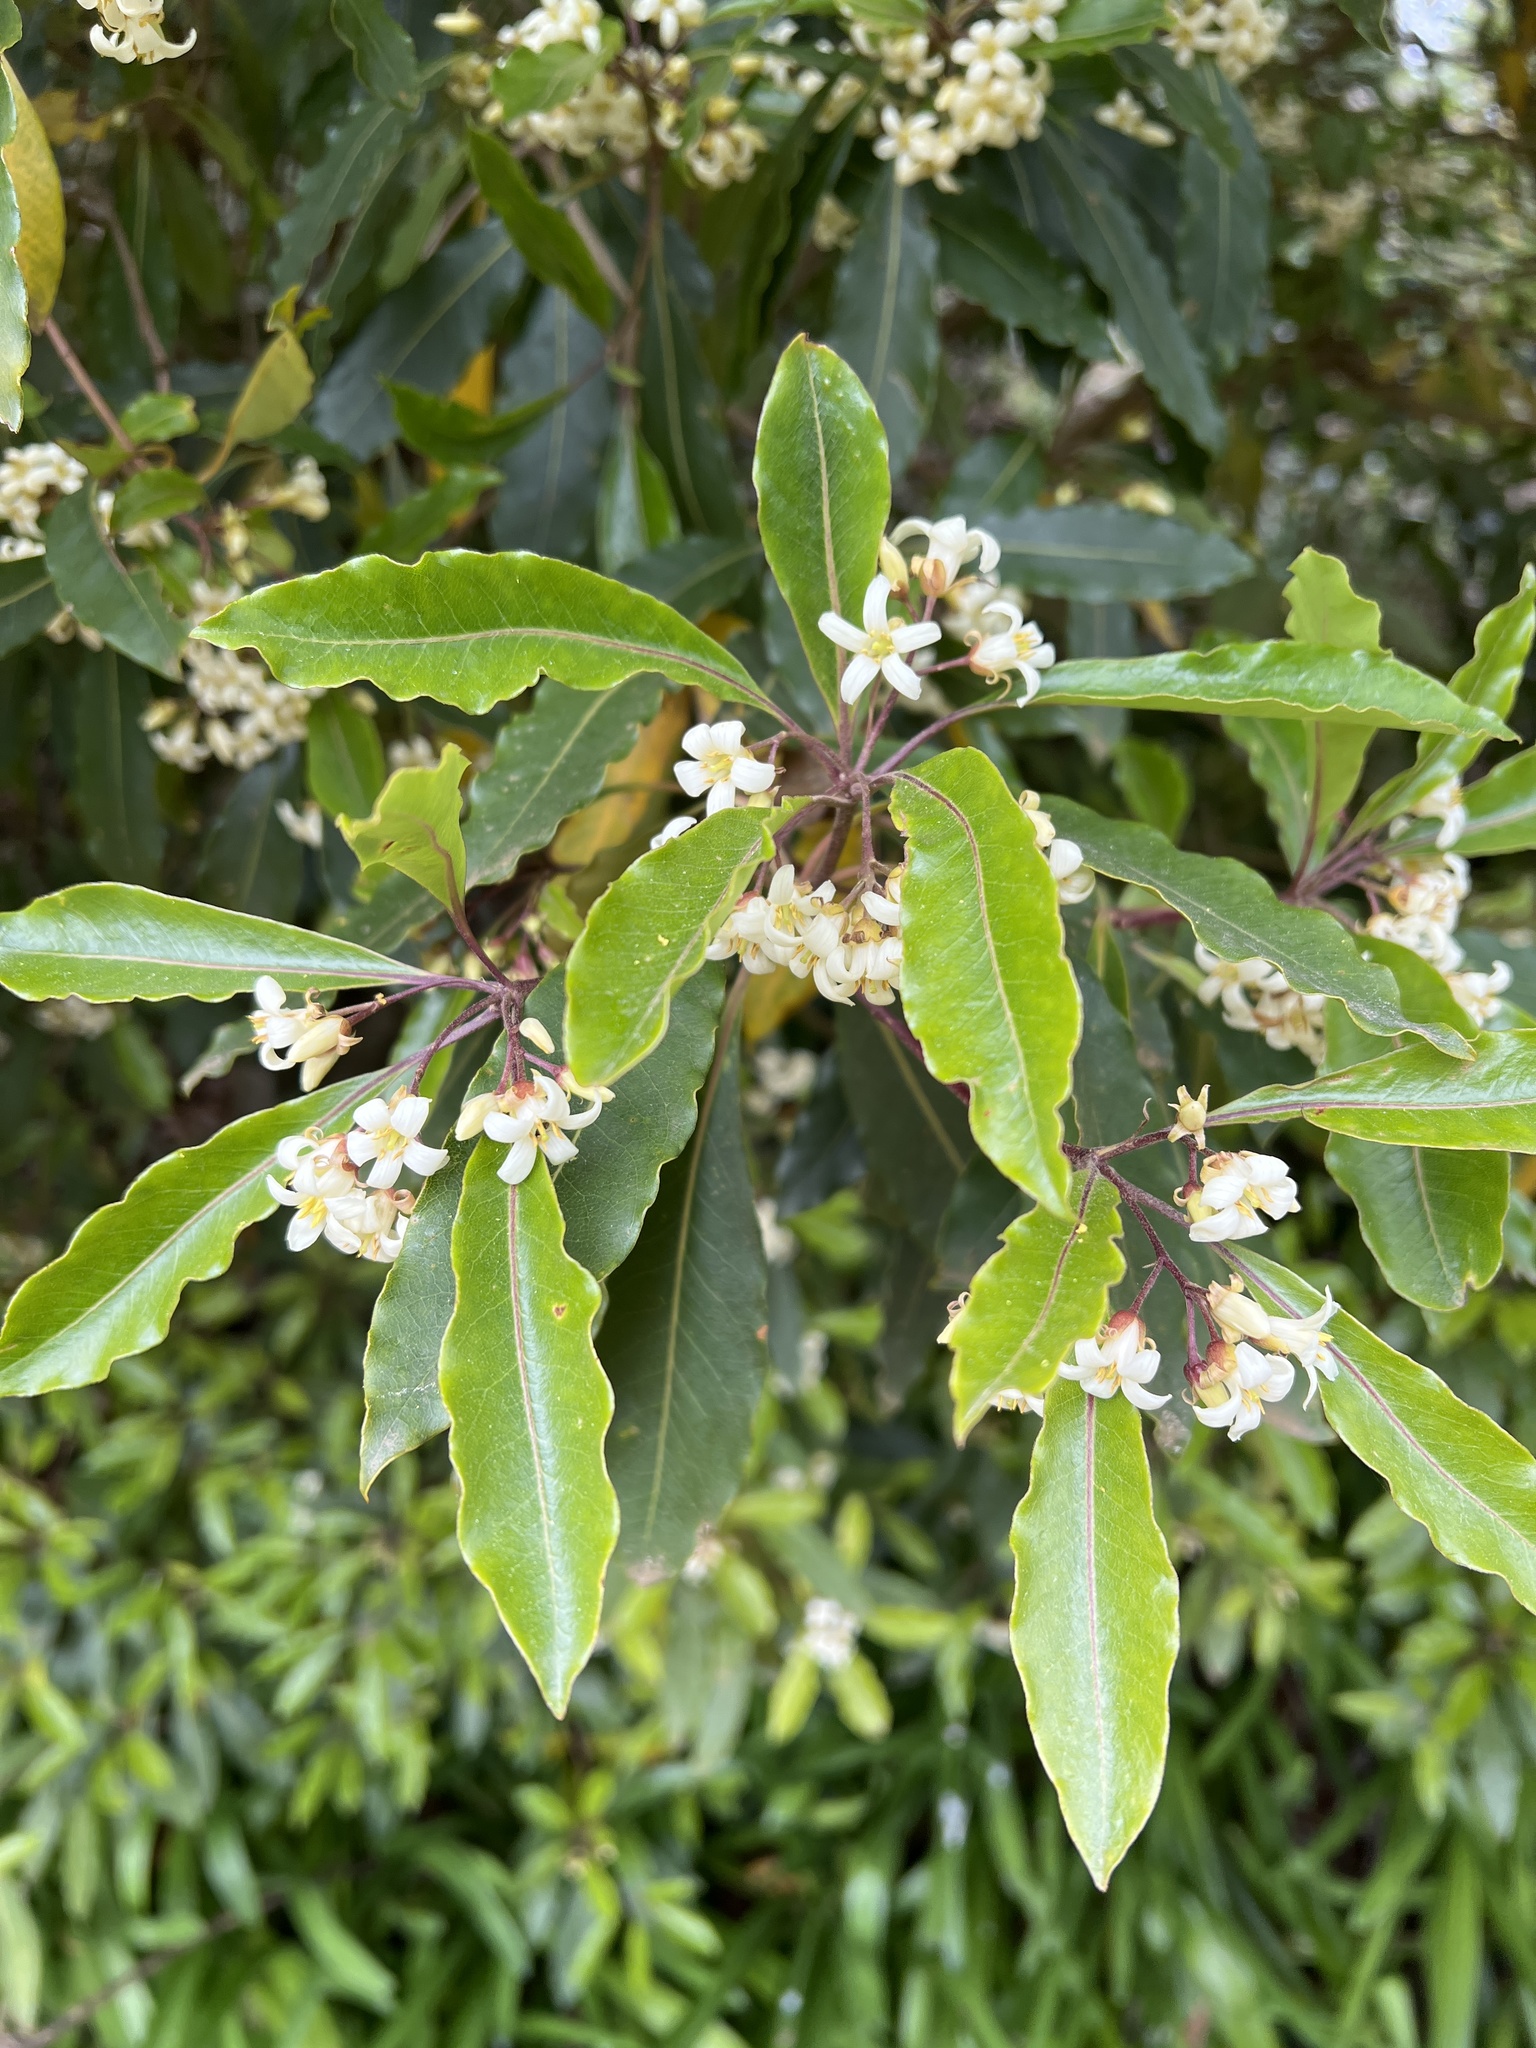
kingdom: Plantae
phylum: Tracheophyta
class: Magnoliopsida
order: Apiales
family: Pittosporaceae
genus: Pittosporum
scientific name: Pittosporum undulatum
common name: Australian cheesewood
